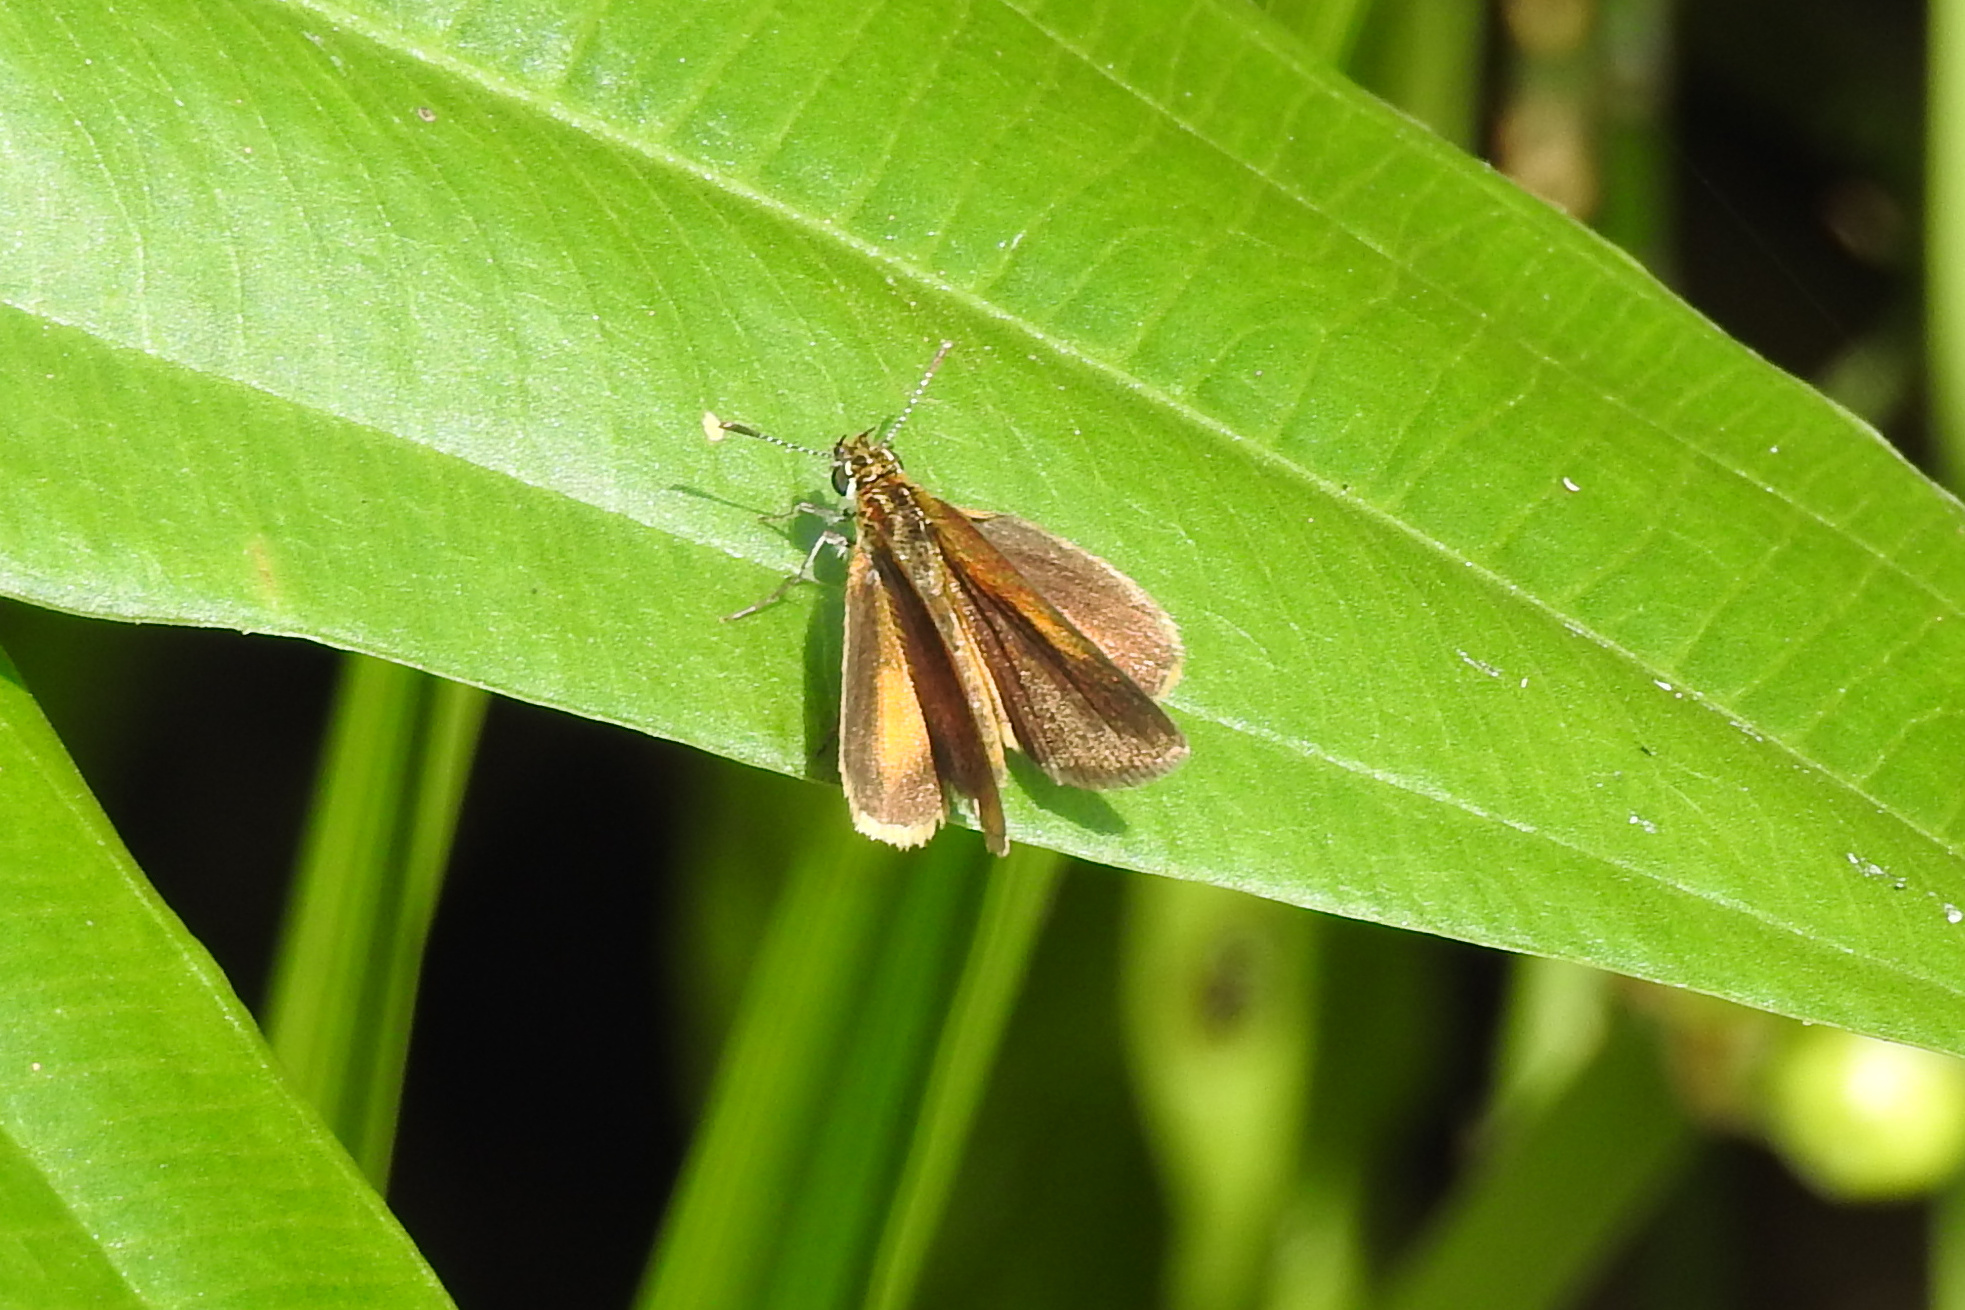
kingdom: Animalia
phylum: Arthropoda
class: Insecta
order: Lepidoptera
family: Hesperiidae
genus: Ancyloxypha
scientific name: Ancyloxypha numitor
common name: Least skipper
